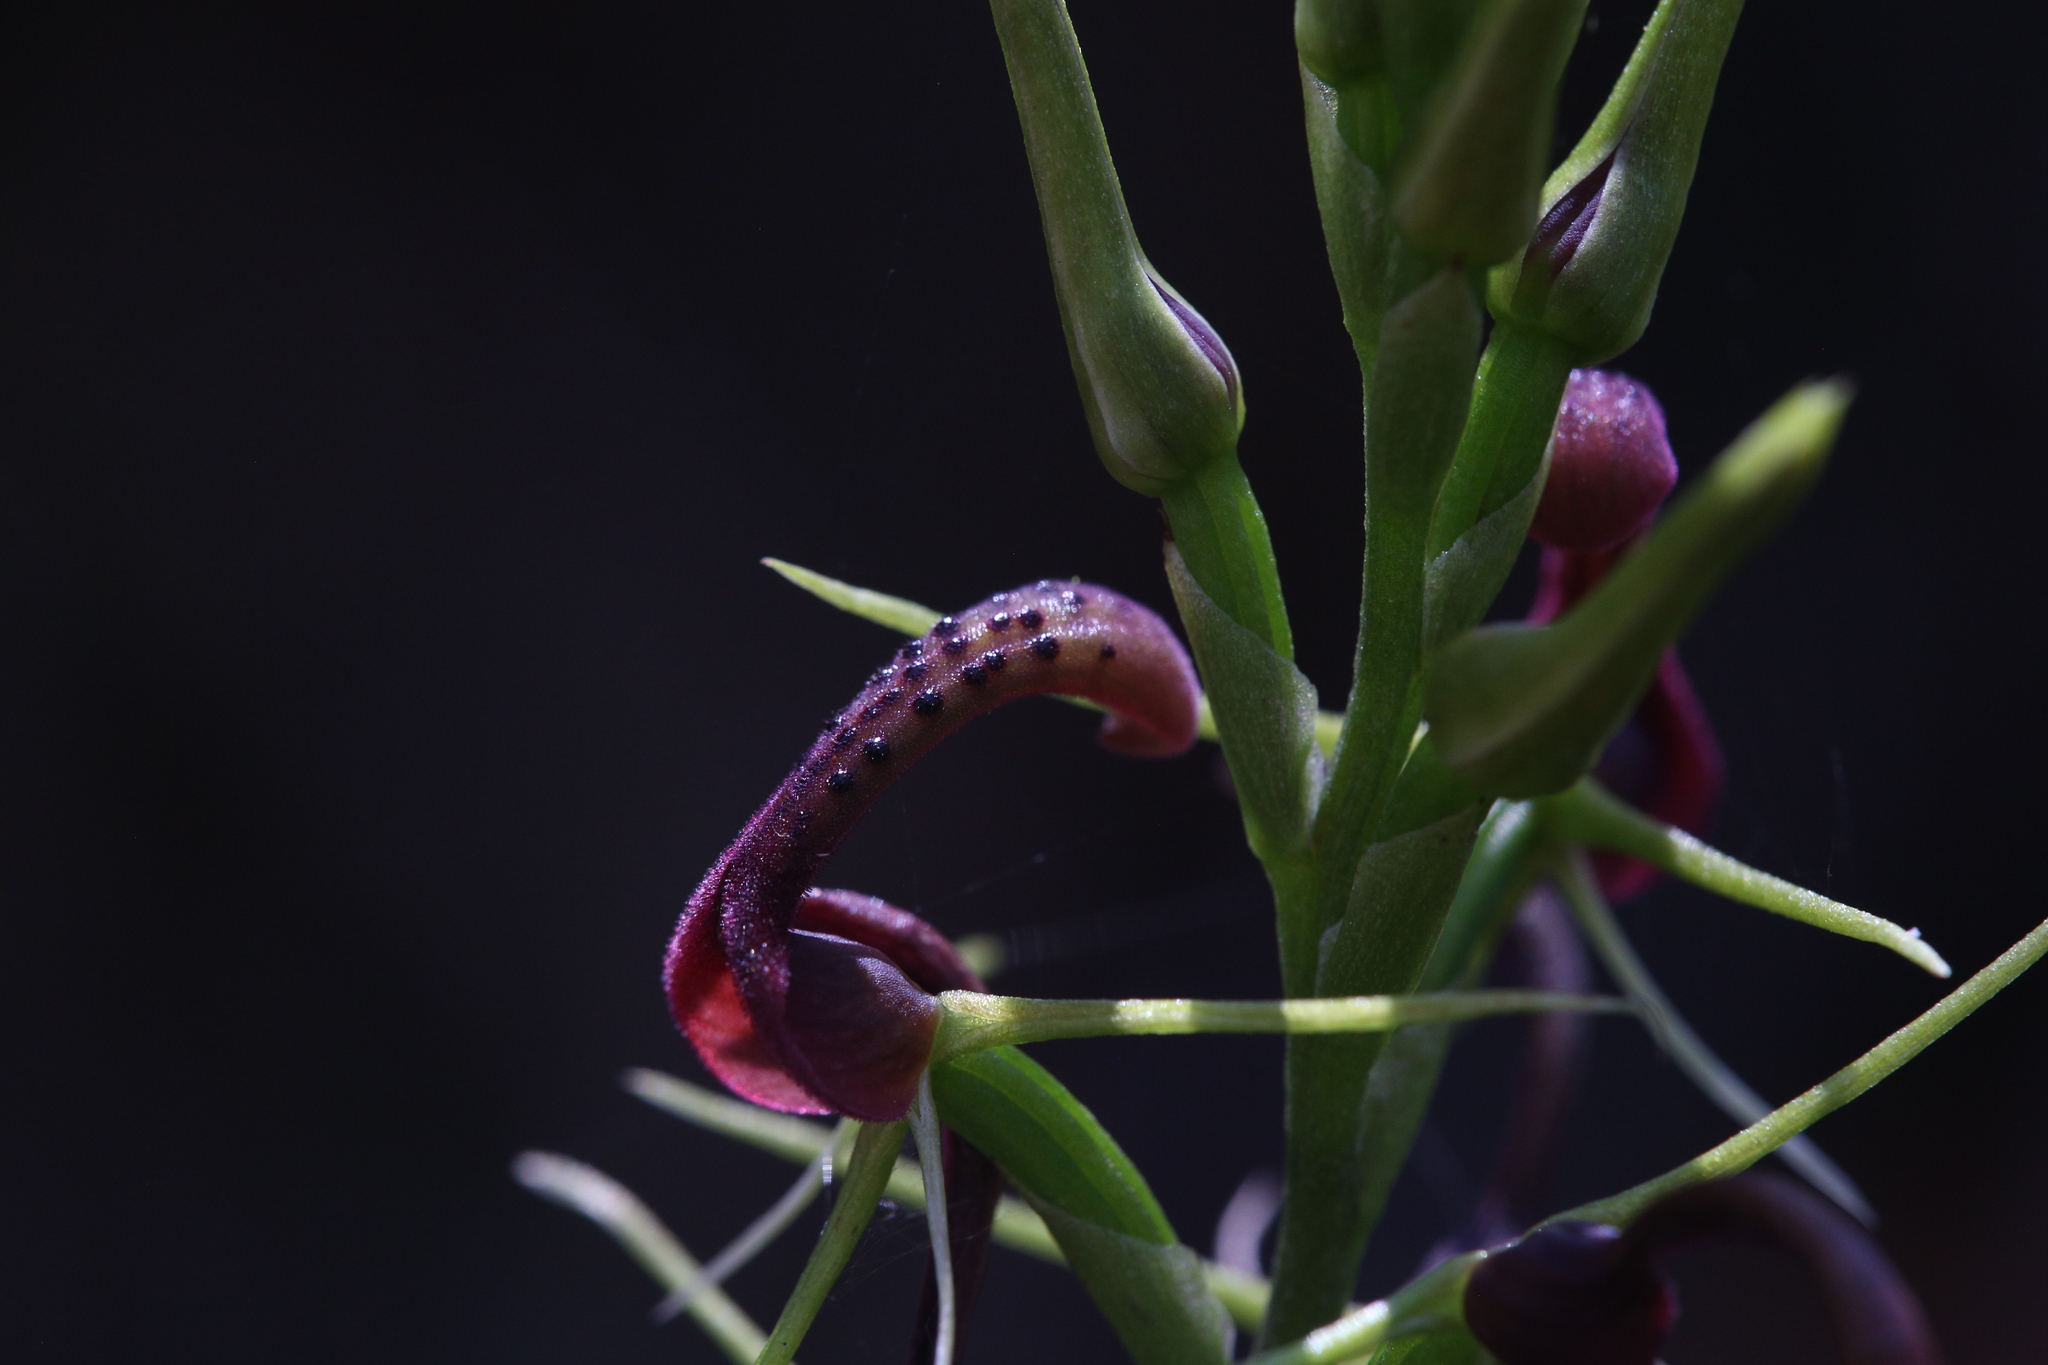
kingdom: Plantae
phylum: Tracheophyta
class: Liliopsida
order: Asparagales
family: Orchidaceae
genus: Cryptostylis
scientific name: Cryptostylis leptochila
